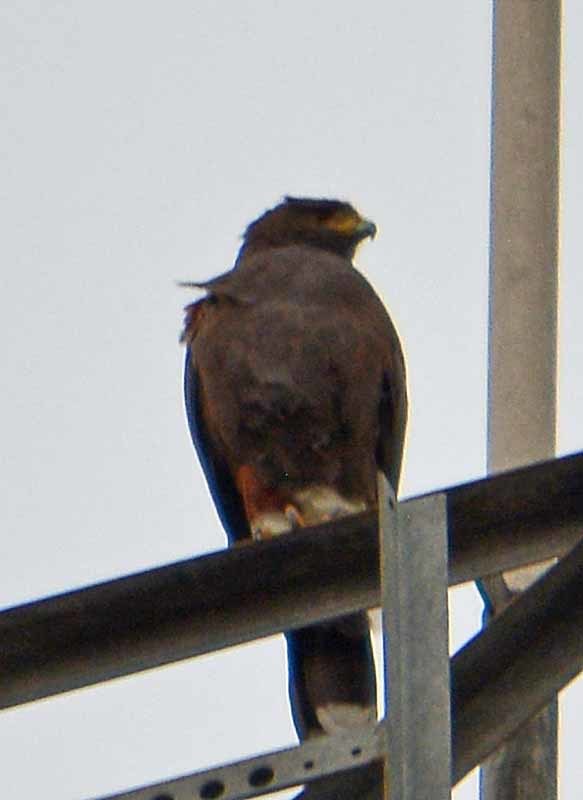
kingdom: Animalia
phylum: Chordata
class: Aves
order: Accipitriformes
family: Accipitridae
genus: Parabuteo
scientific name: Parabuteo unicinctus
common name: Harris's hawk
